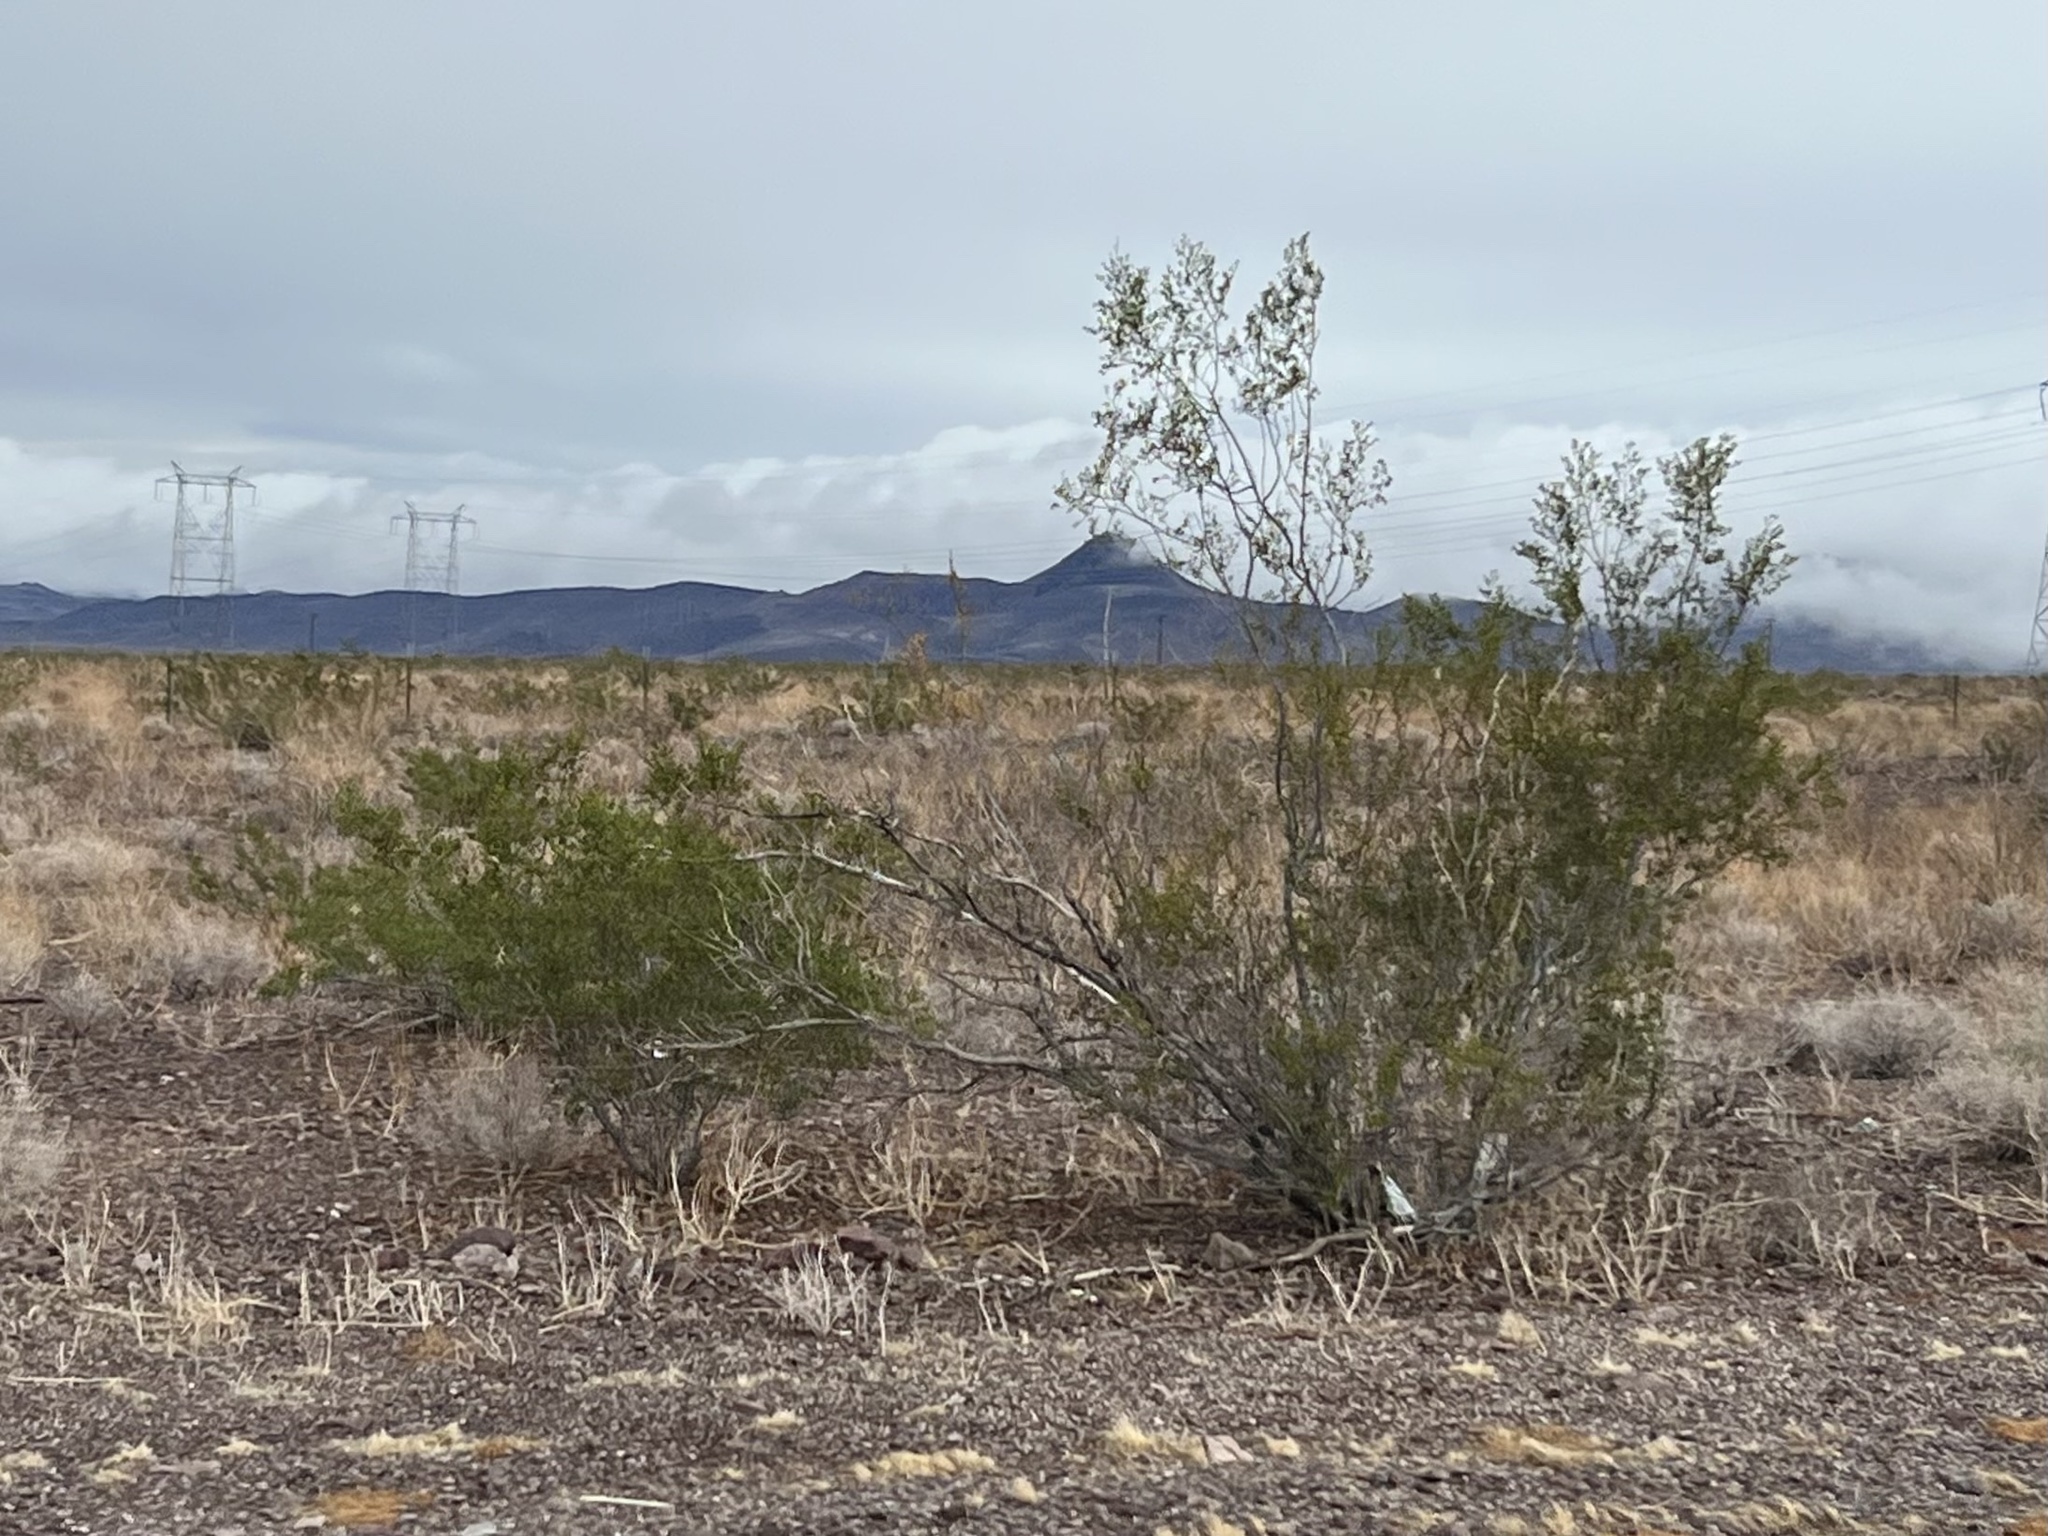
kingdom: Plantae
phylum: Tracheophyta
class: Magnoliopsida
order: Zygophyllales
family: Zygophyllaceae
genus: Larrea
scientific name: Larrea tridentata
